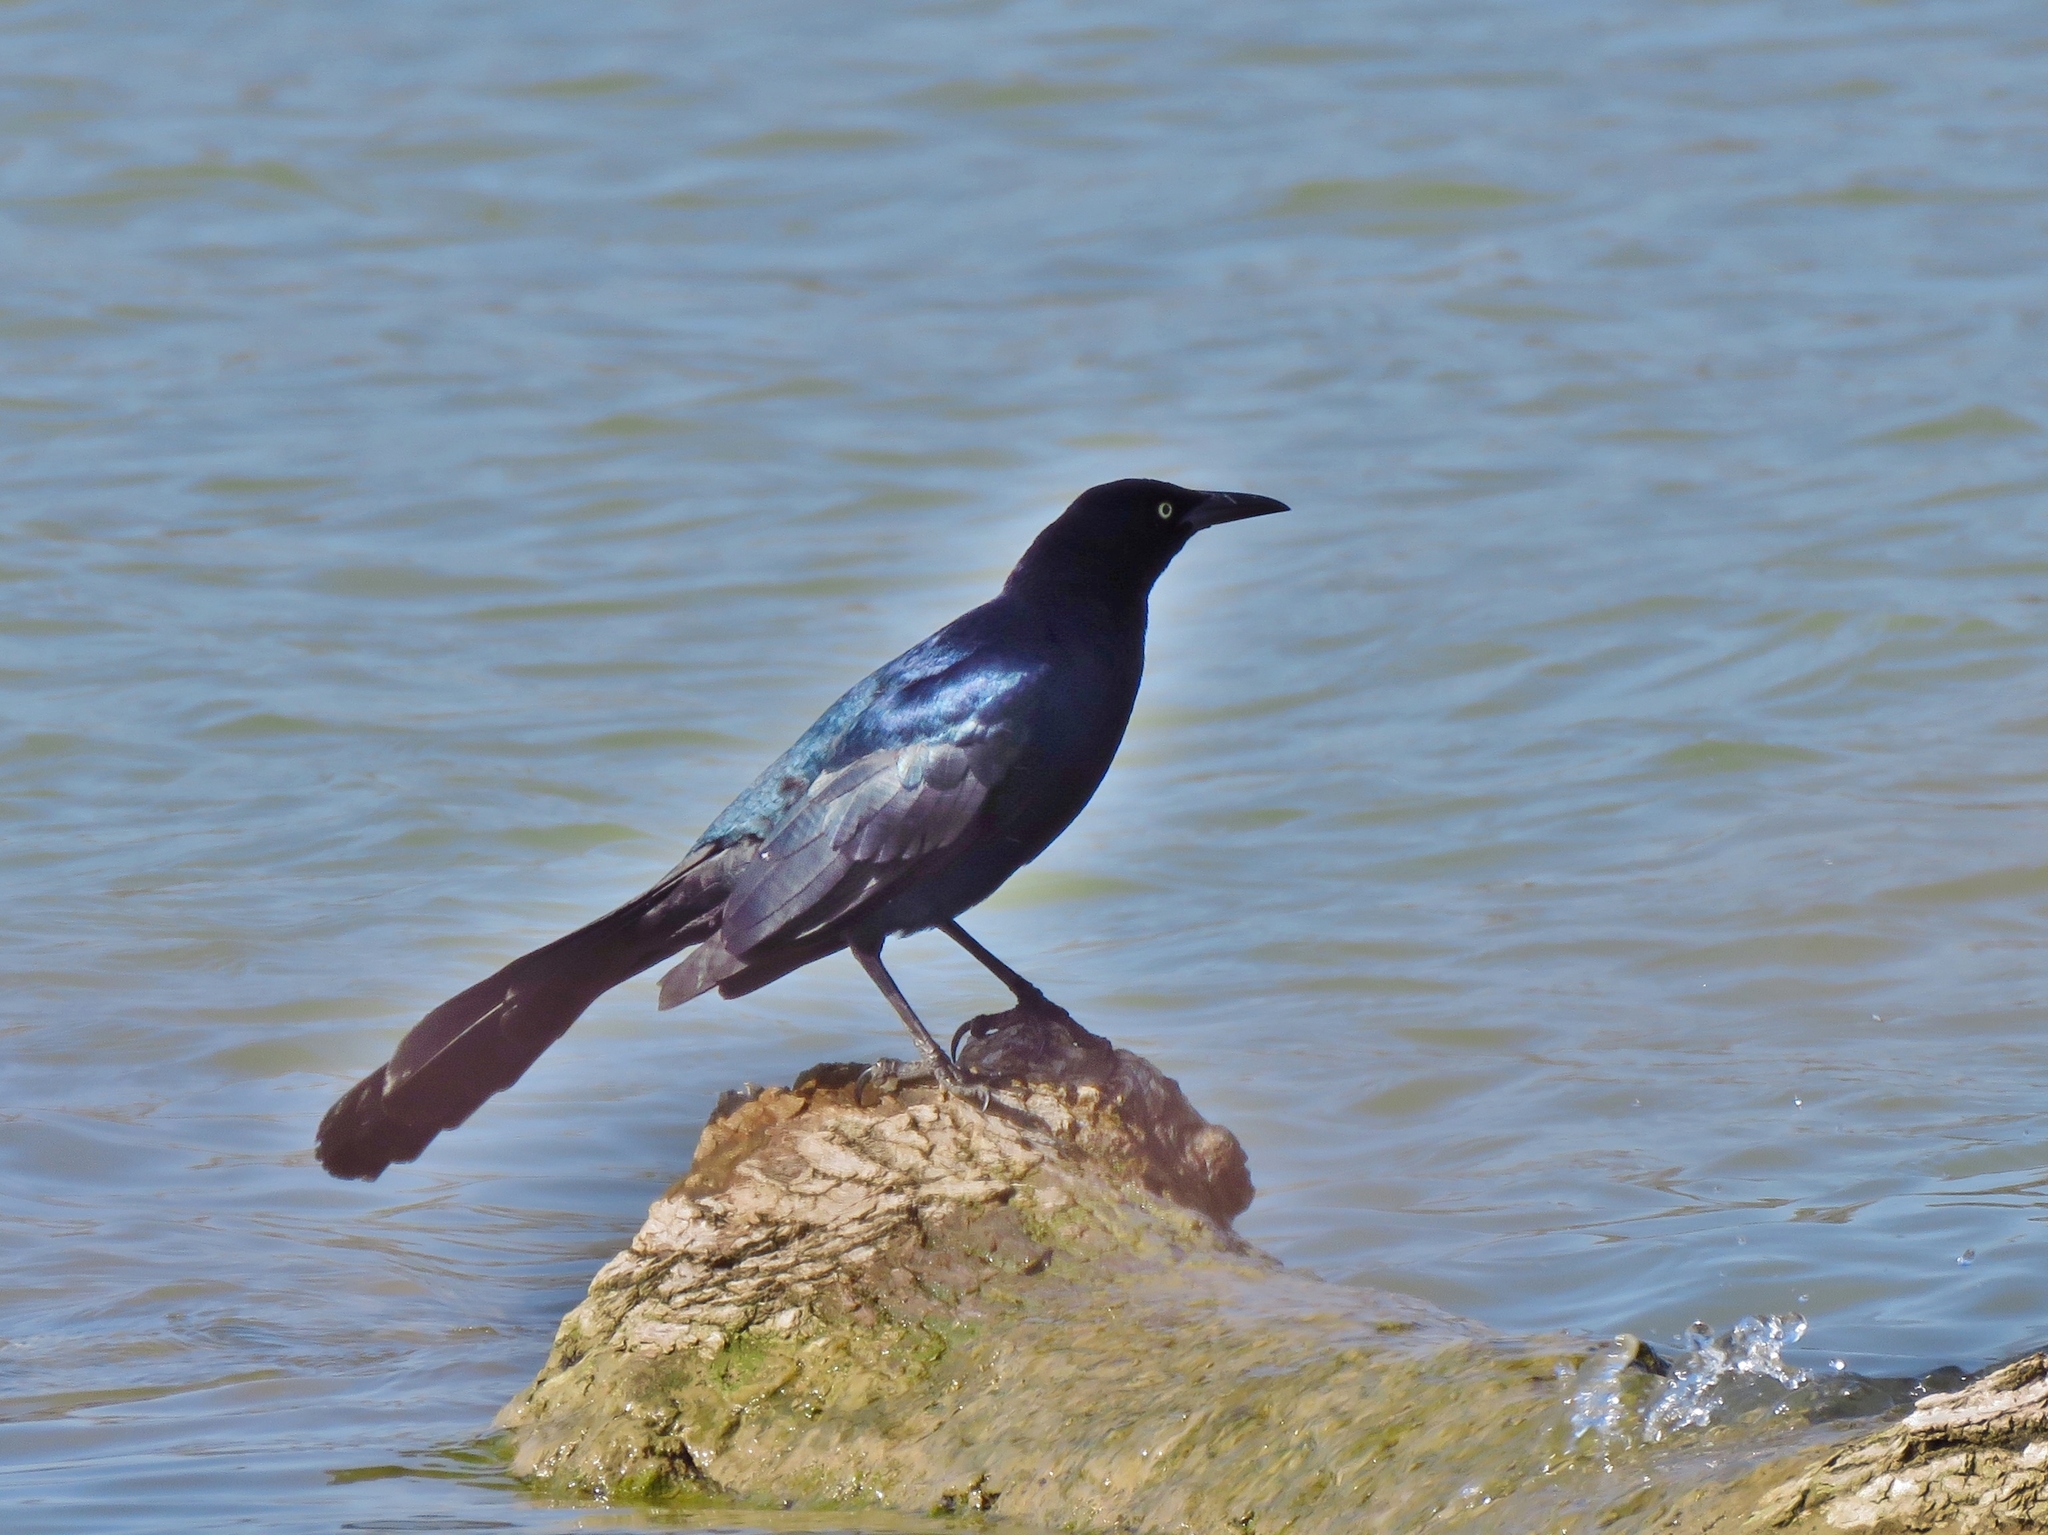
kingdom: Animalia
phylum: Chordata
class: Aves
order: Passeriformes
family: Icteridae
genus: Quiscalus
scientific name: Quiscalus mexicanus
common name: Great-tailed grackle
